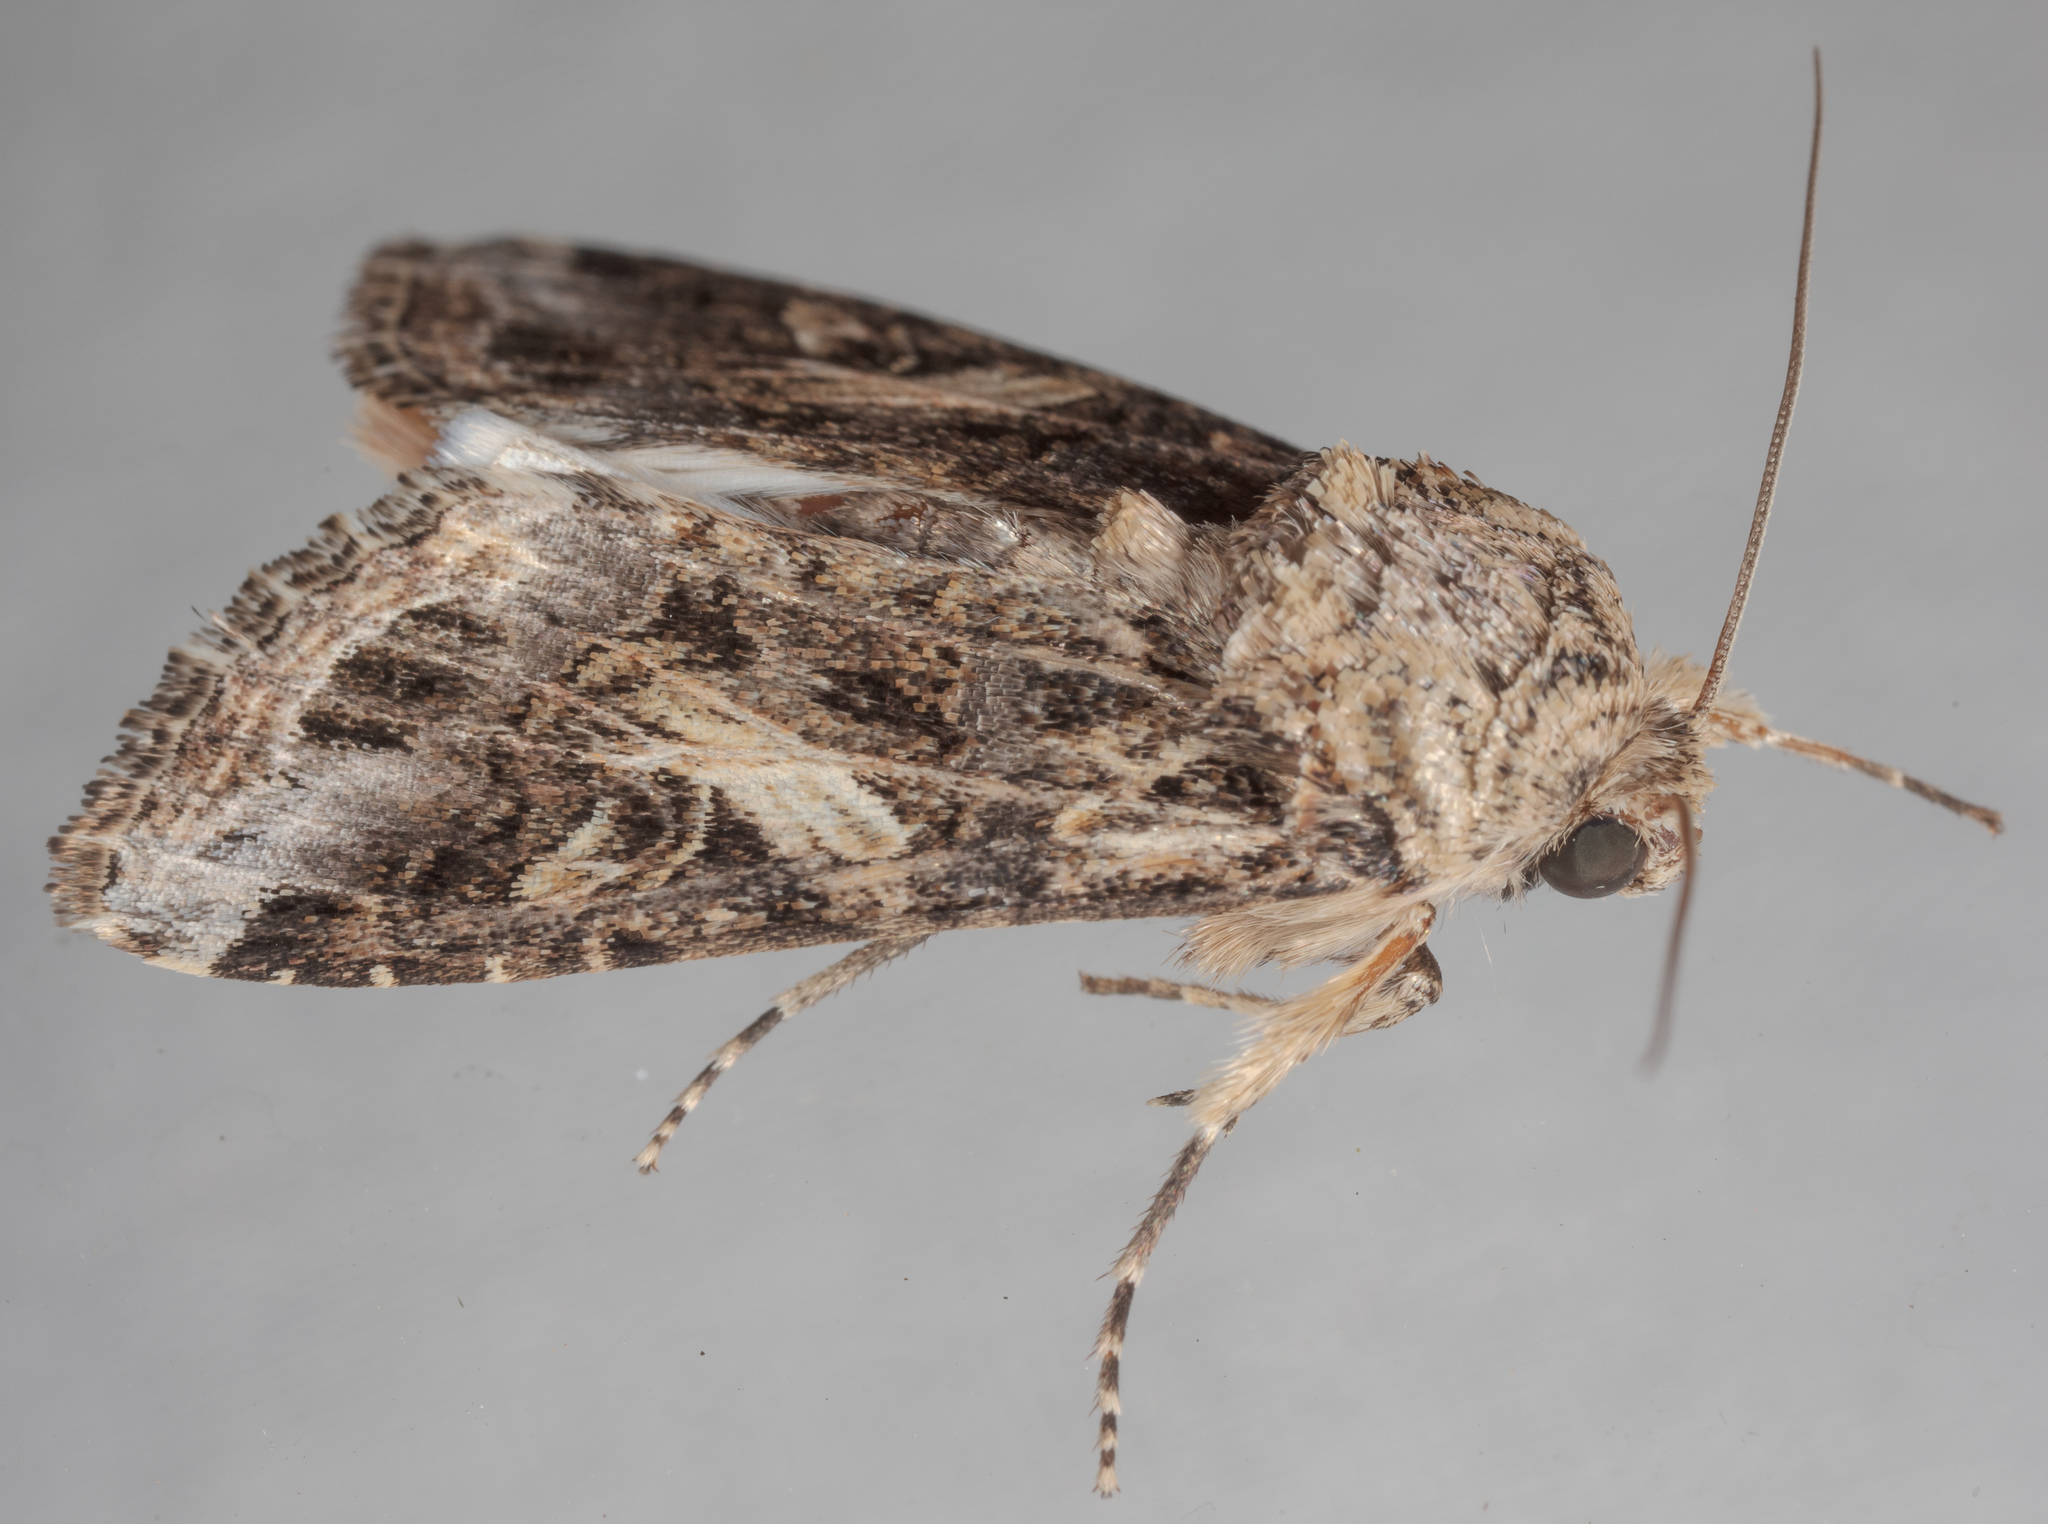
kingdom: Animalia
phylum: Arthropoda
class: Insecta
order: Lepidoptera
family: Noctuidae
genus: Spodoptera
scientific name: Spodoptera ornithogalli
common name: Yellow-striped armyworm
